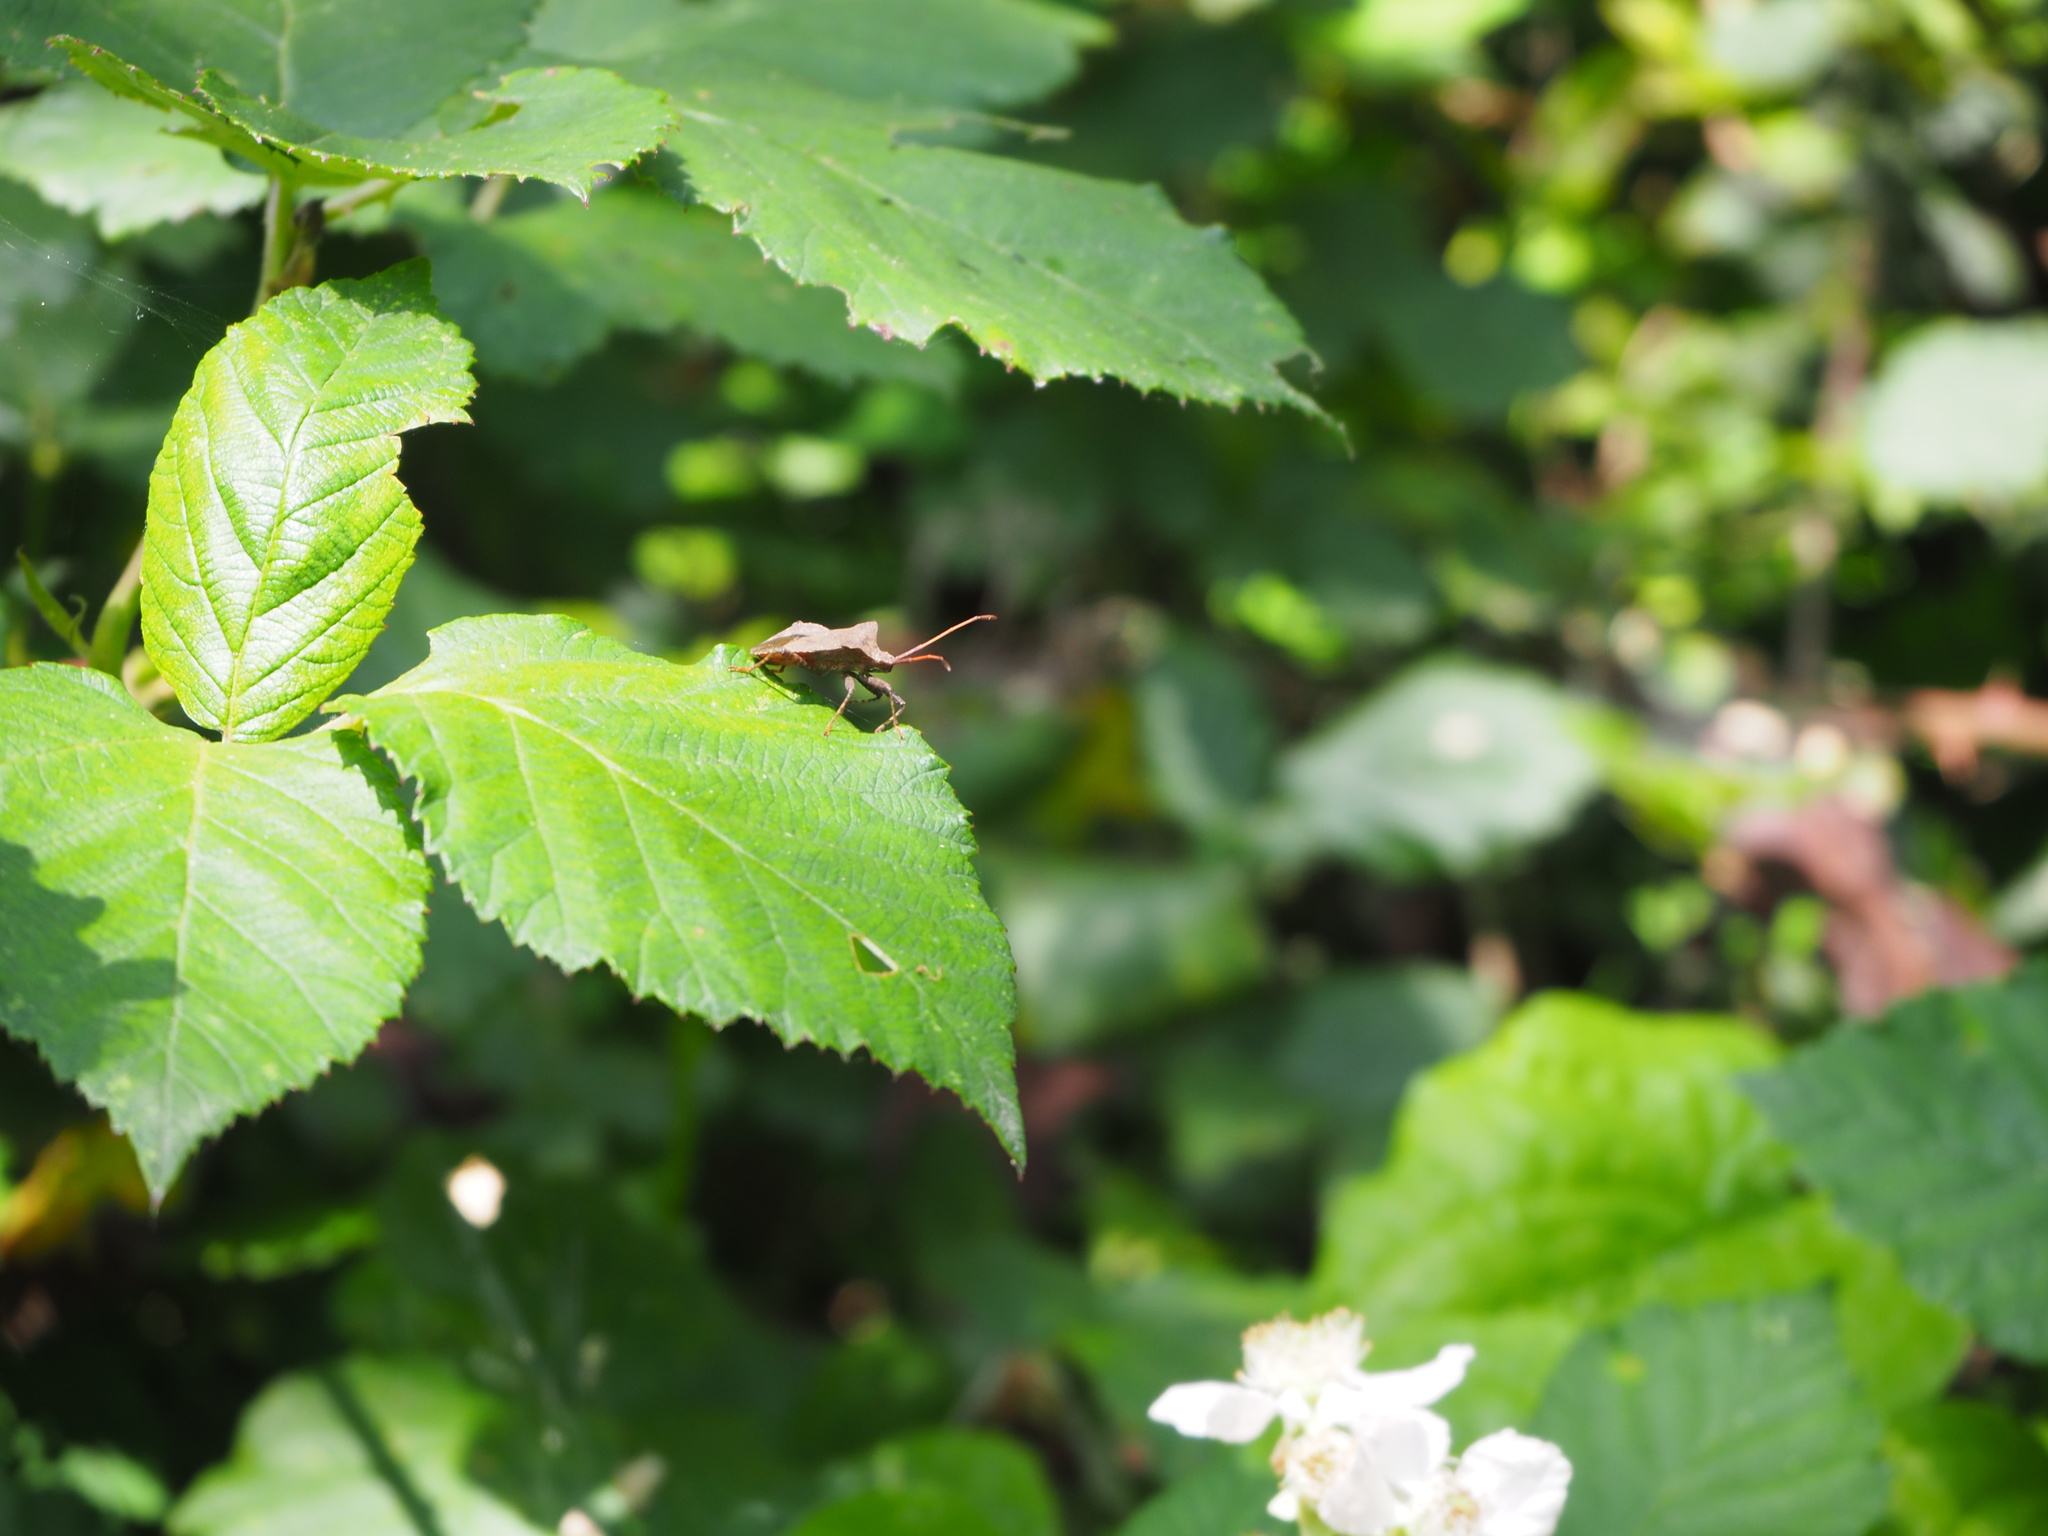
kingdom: Animalia
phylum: Arthropoda
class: Insecta
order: Hemiptera
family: Coreidae
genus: Coreus
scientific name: Coreus marginatus
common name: Dock bug
